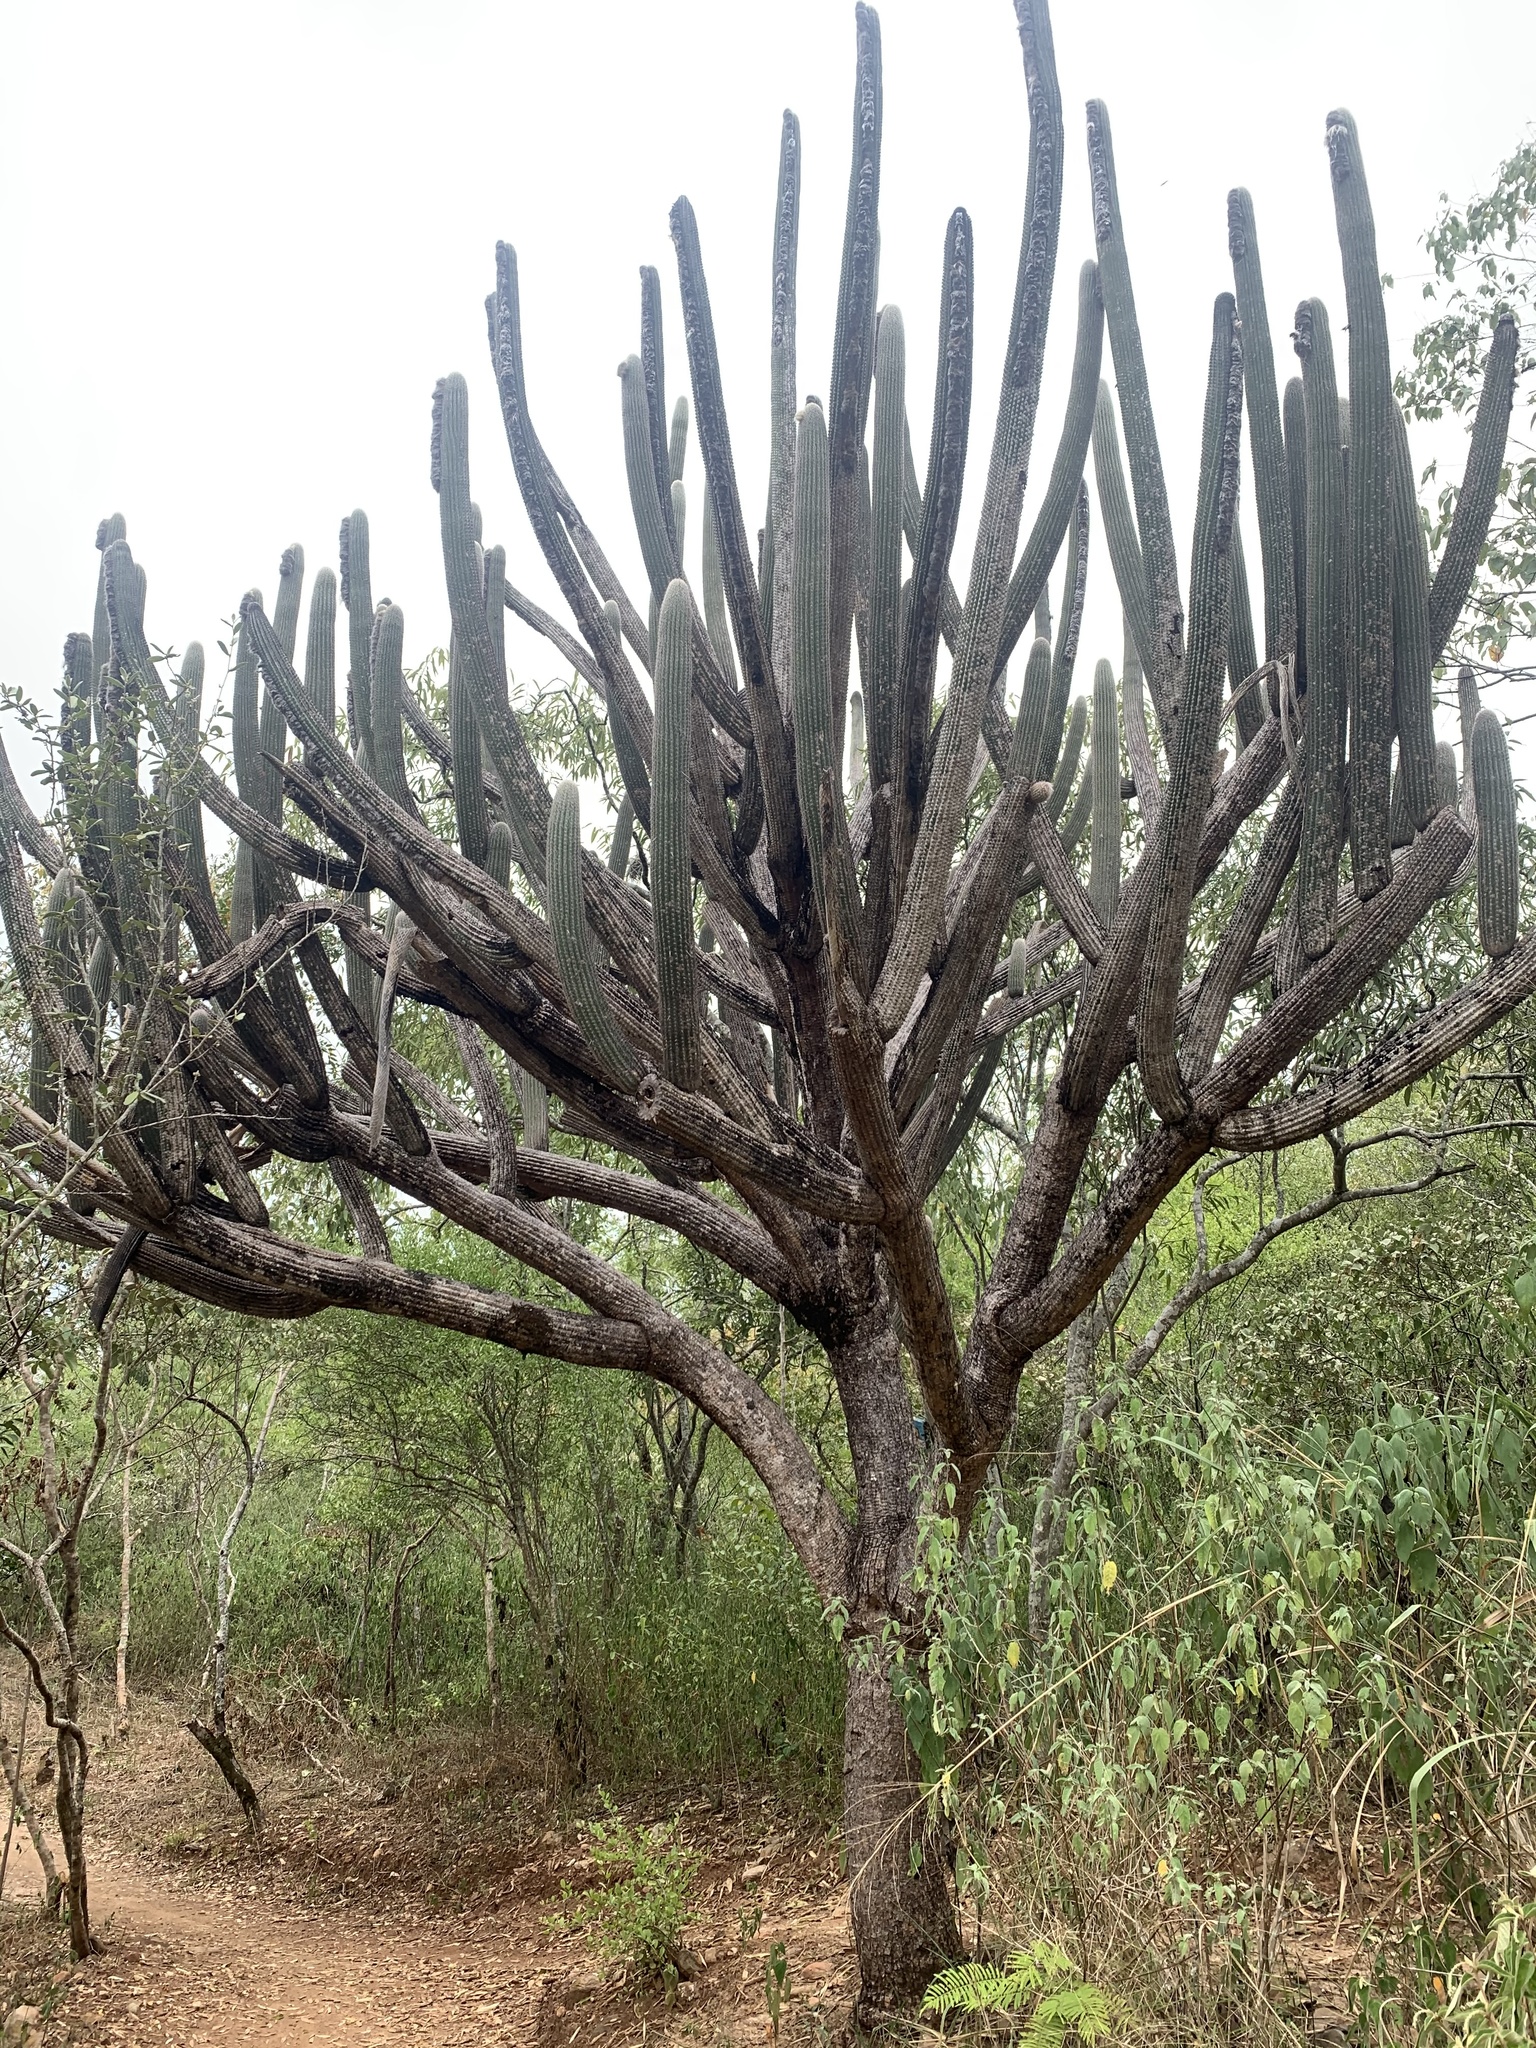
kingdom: Plantae
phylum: Tracheophyta
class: Magnoliopsida
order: Caryophyllales
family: Cactaceae
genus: Espostoa
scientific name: Espostoa lanata
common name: Snowball cactus
